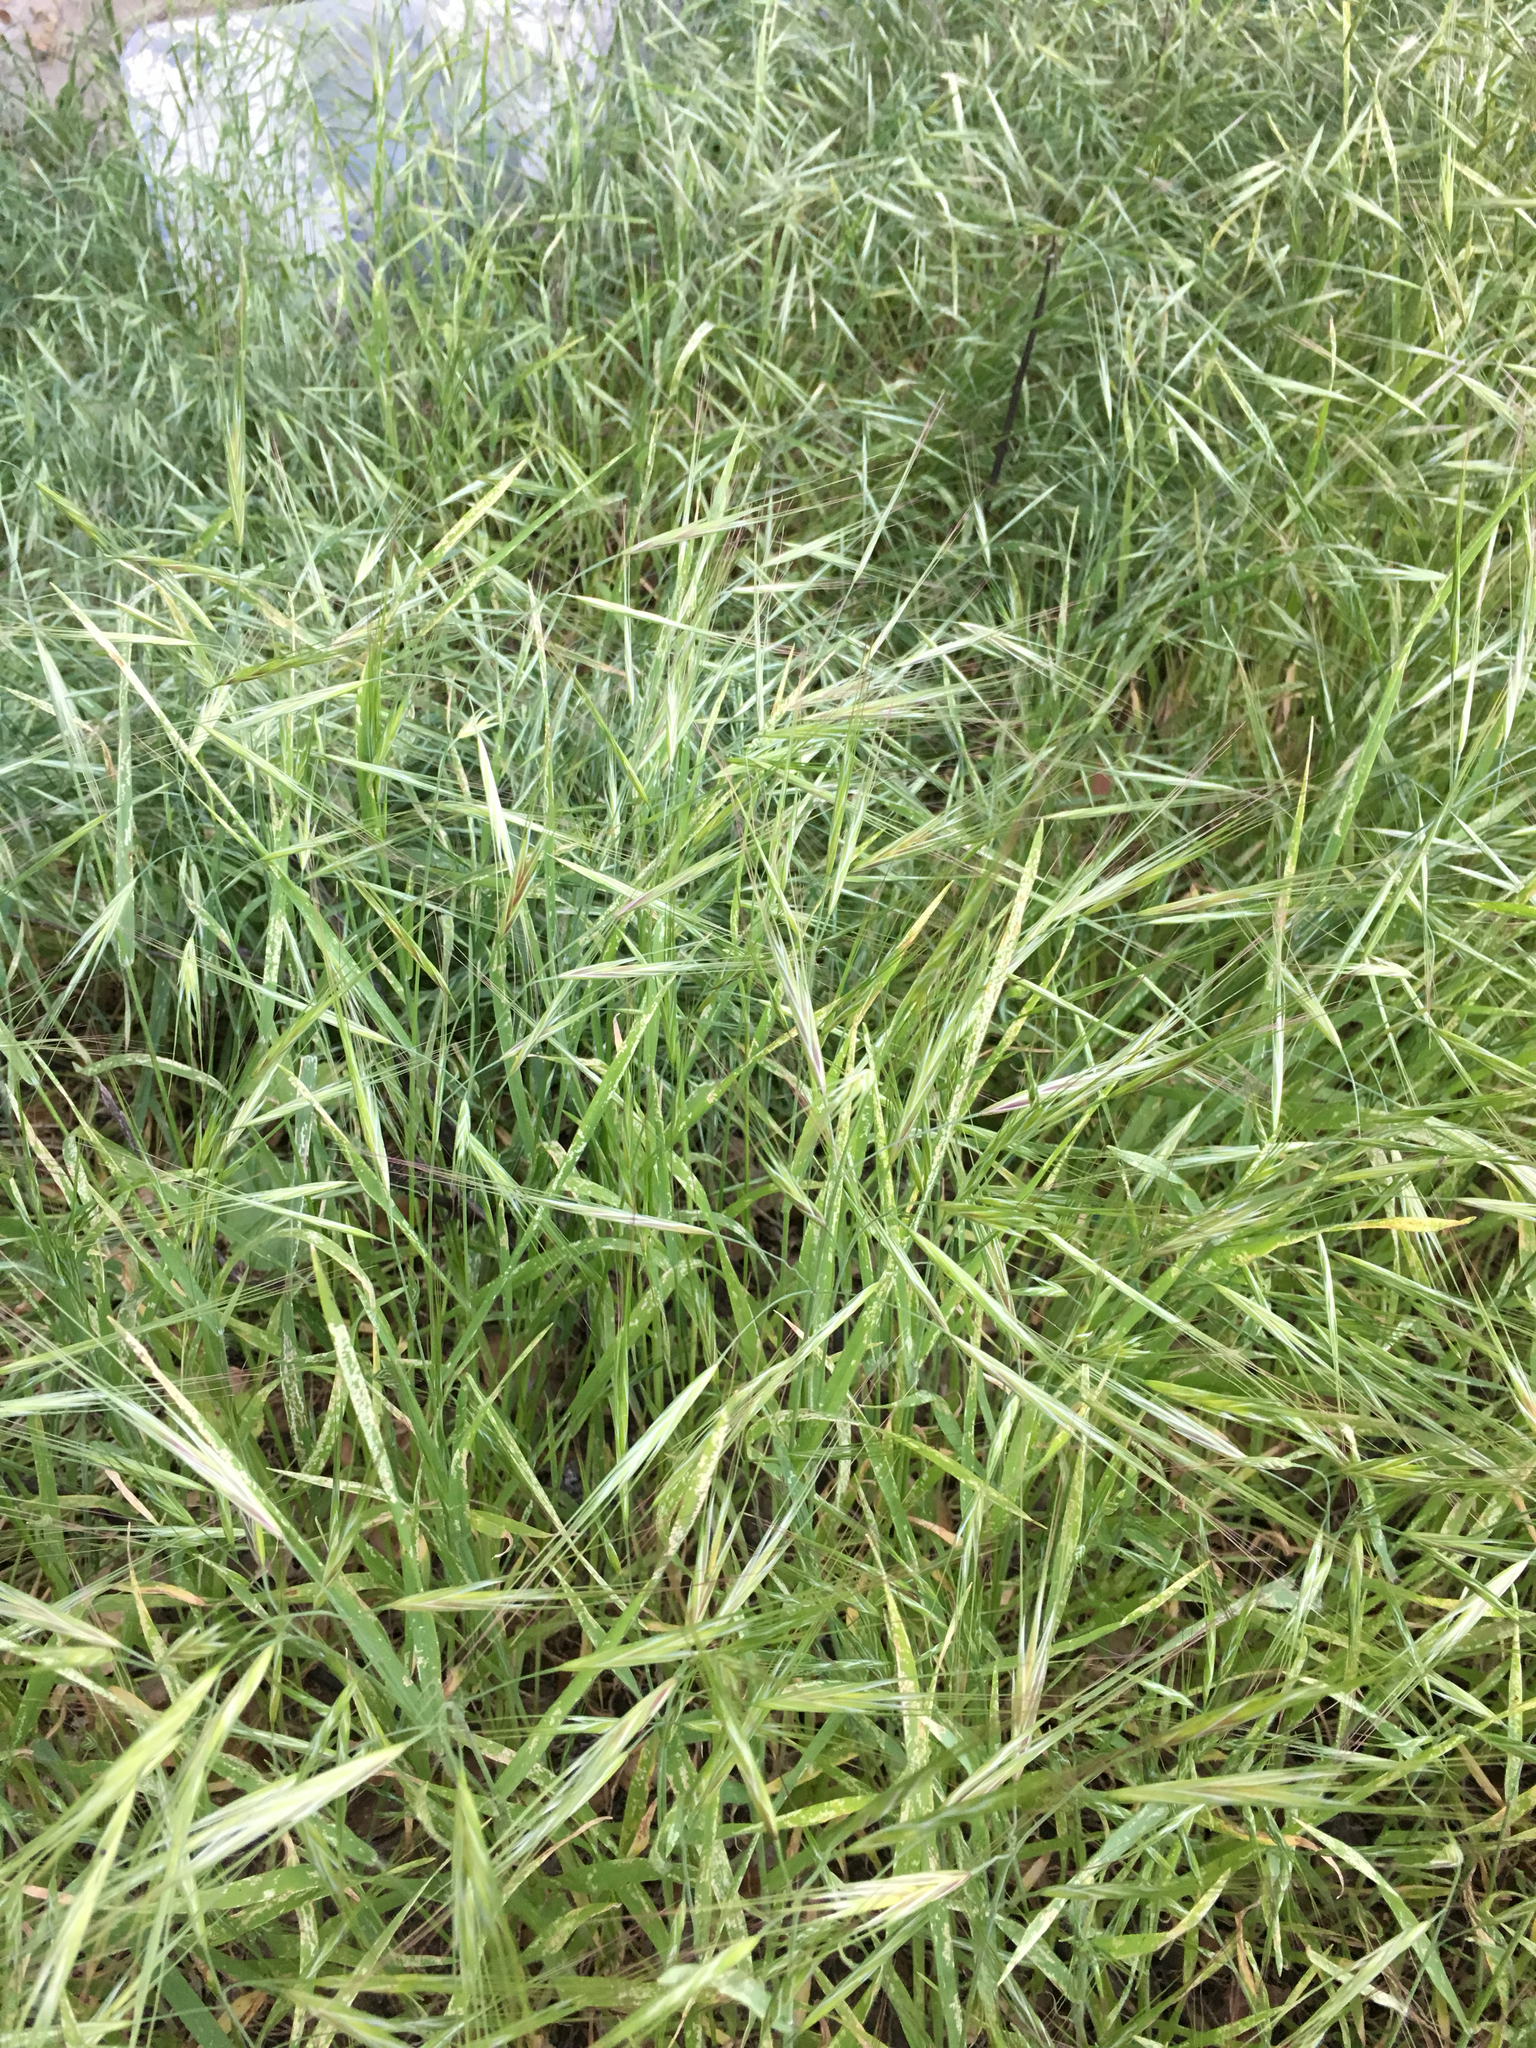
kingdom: Plantae
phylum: Tracheophyta
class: Liliopsida
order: Poales
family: Poaceae
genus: Bromus
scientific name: Bromus diandrus
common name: Ripgut brome
